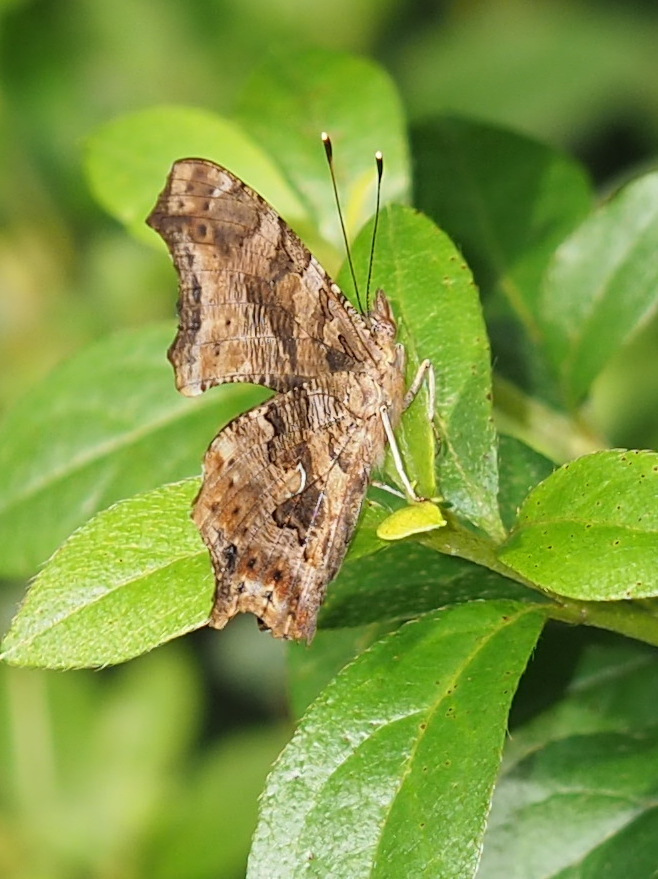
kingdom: Animalia
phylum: Arthropoda
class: Insecta
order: Lepidoptera
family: Nymphalidae
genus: Polygonia
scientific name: Polygonia comma
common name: Eastern comma
